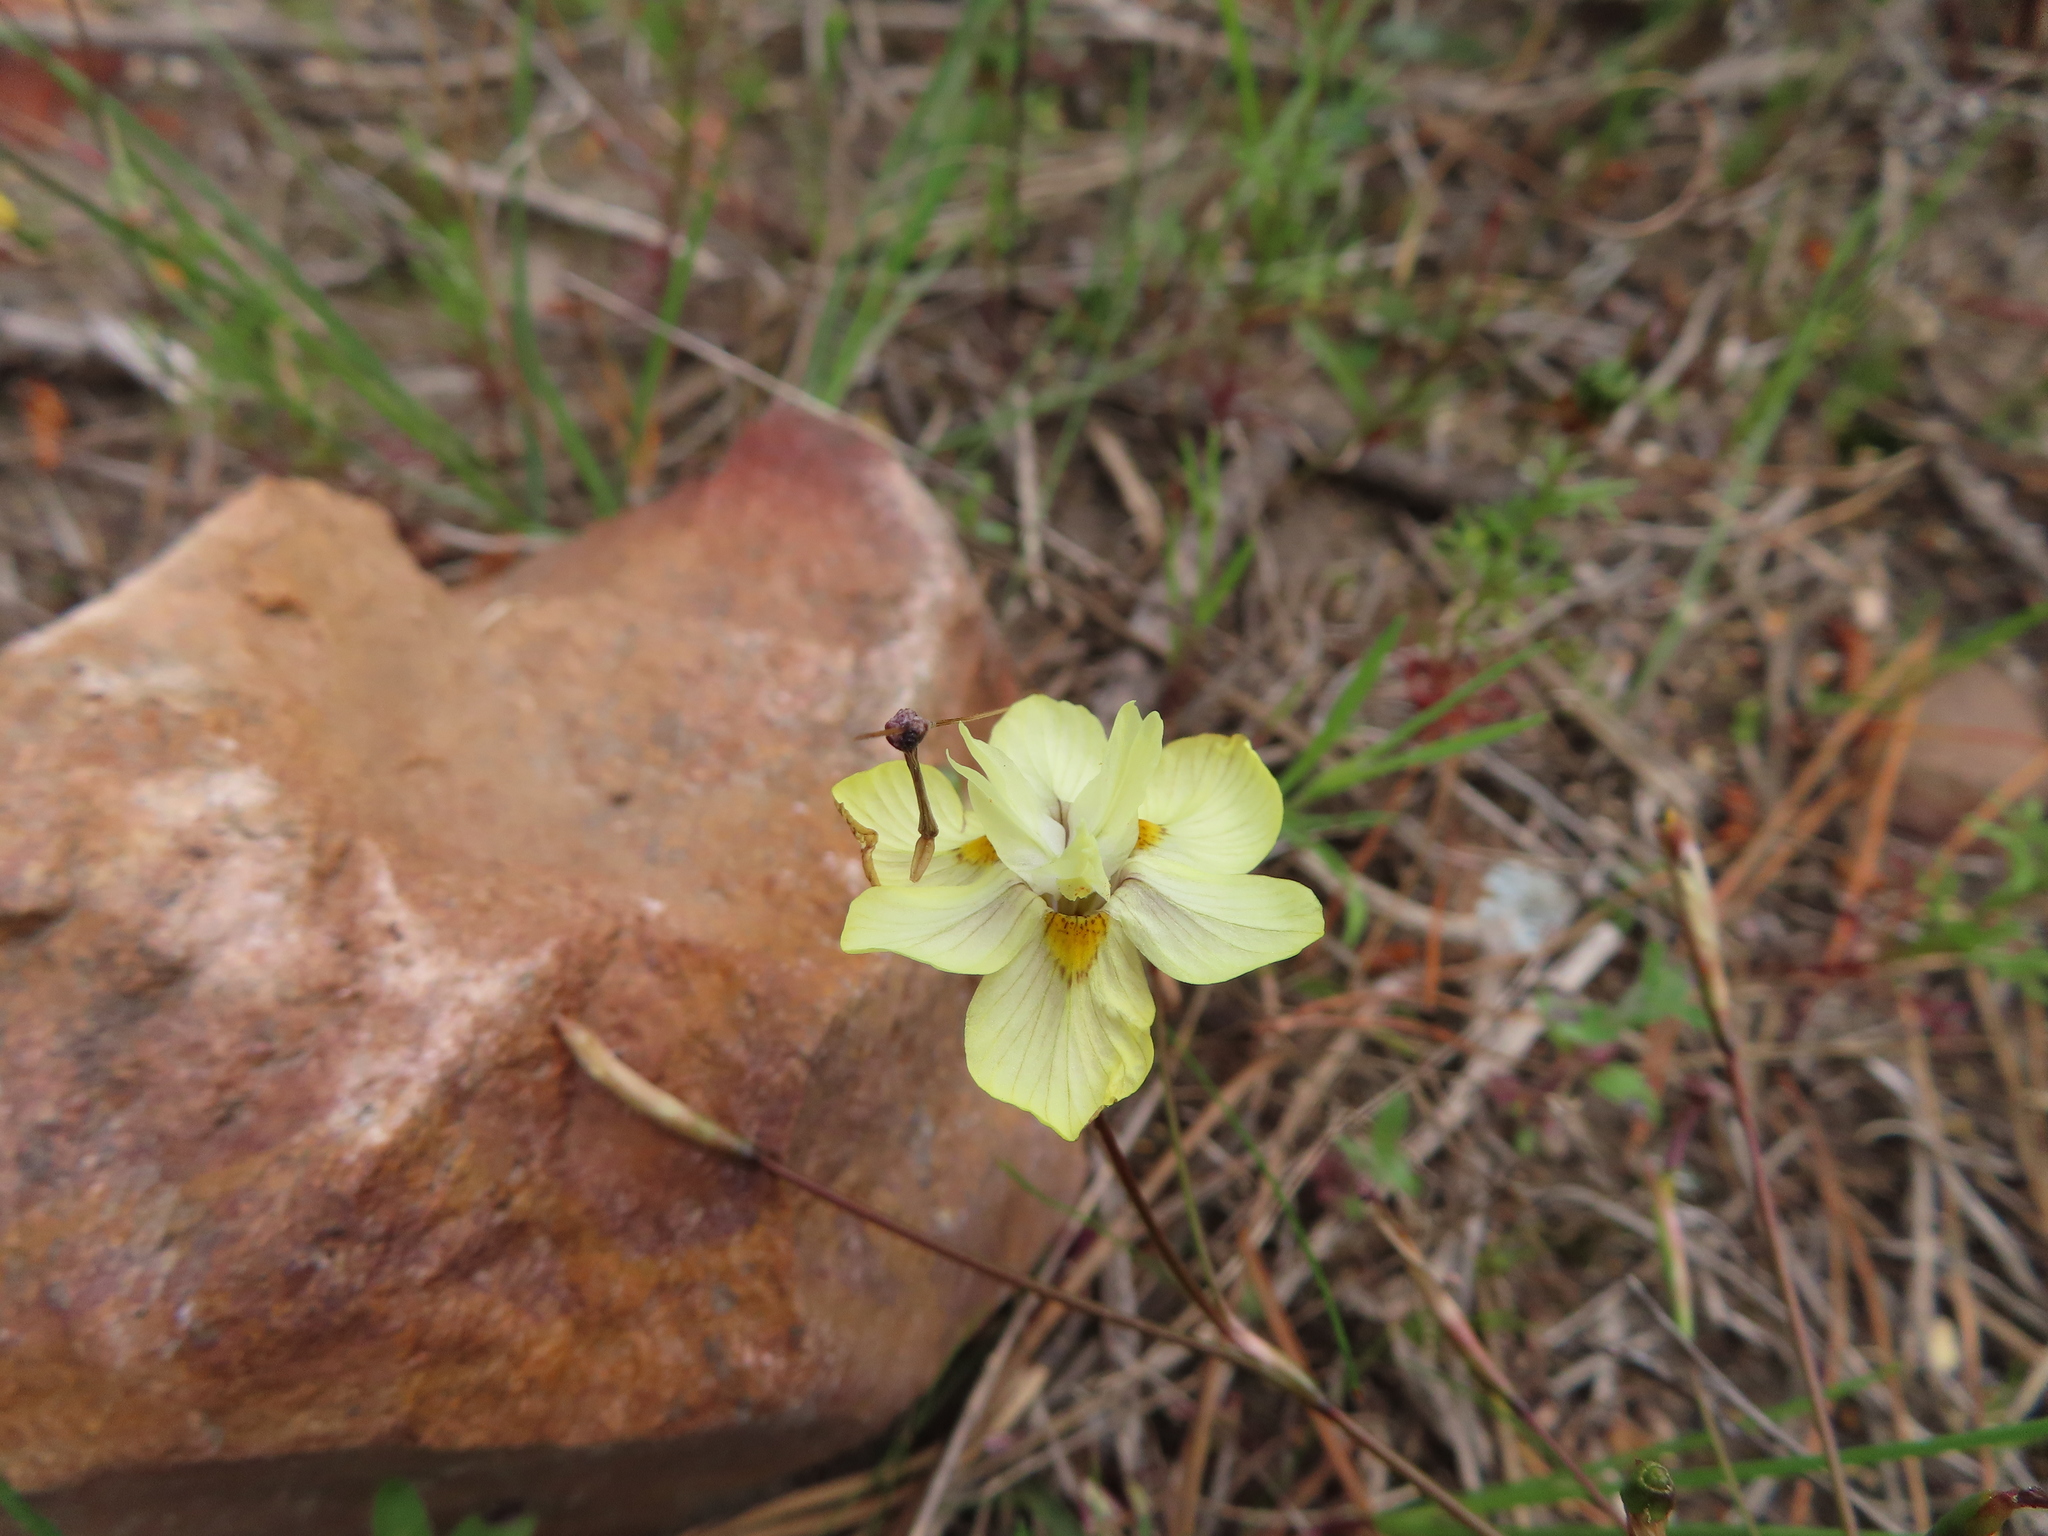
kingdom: Plantae
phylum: Tracheophyta
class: Liliopsida
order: Asparagales
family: Iridaceae
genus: Moraea
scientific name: Moraea gawleri
